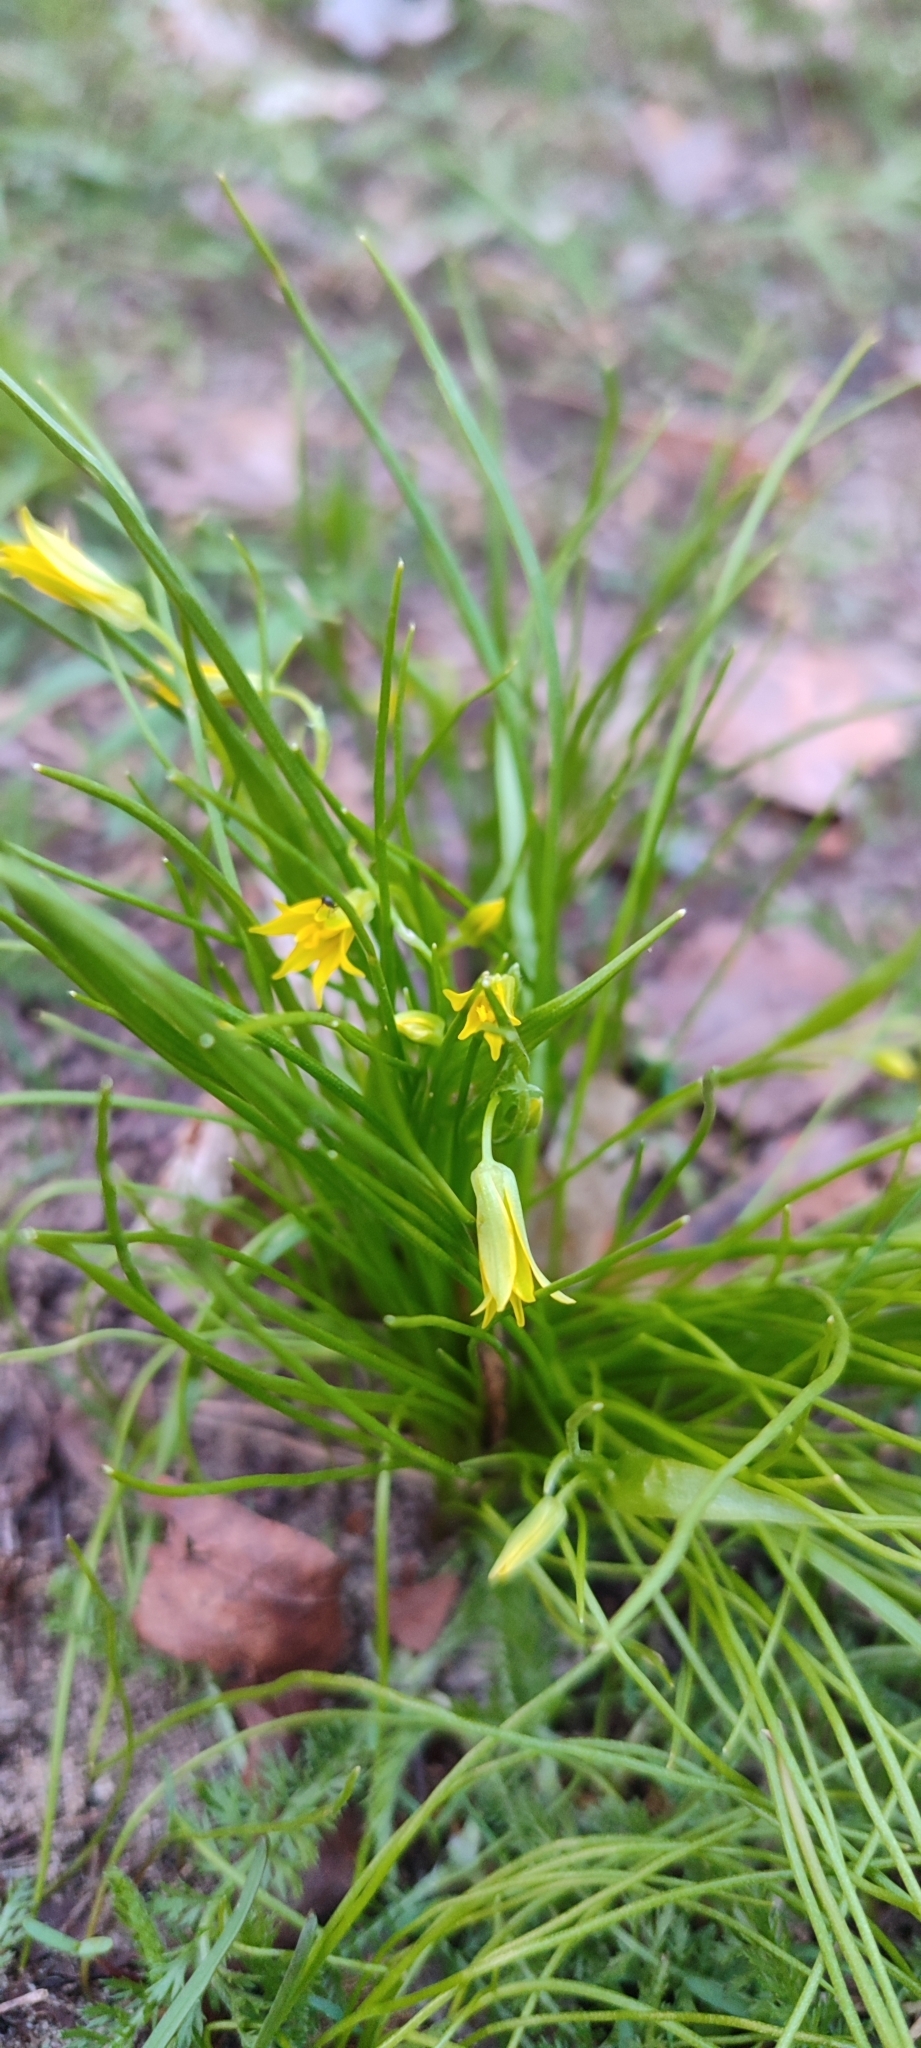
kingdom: Plantae
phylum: Tracheophyta
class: Liliopsida
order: Liliales
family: Liliaceae
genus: Gagea
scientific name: Gagea minima
